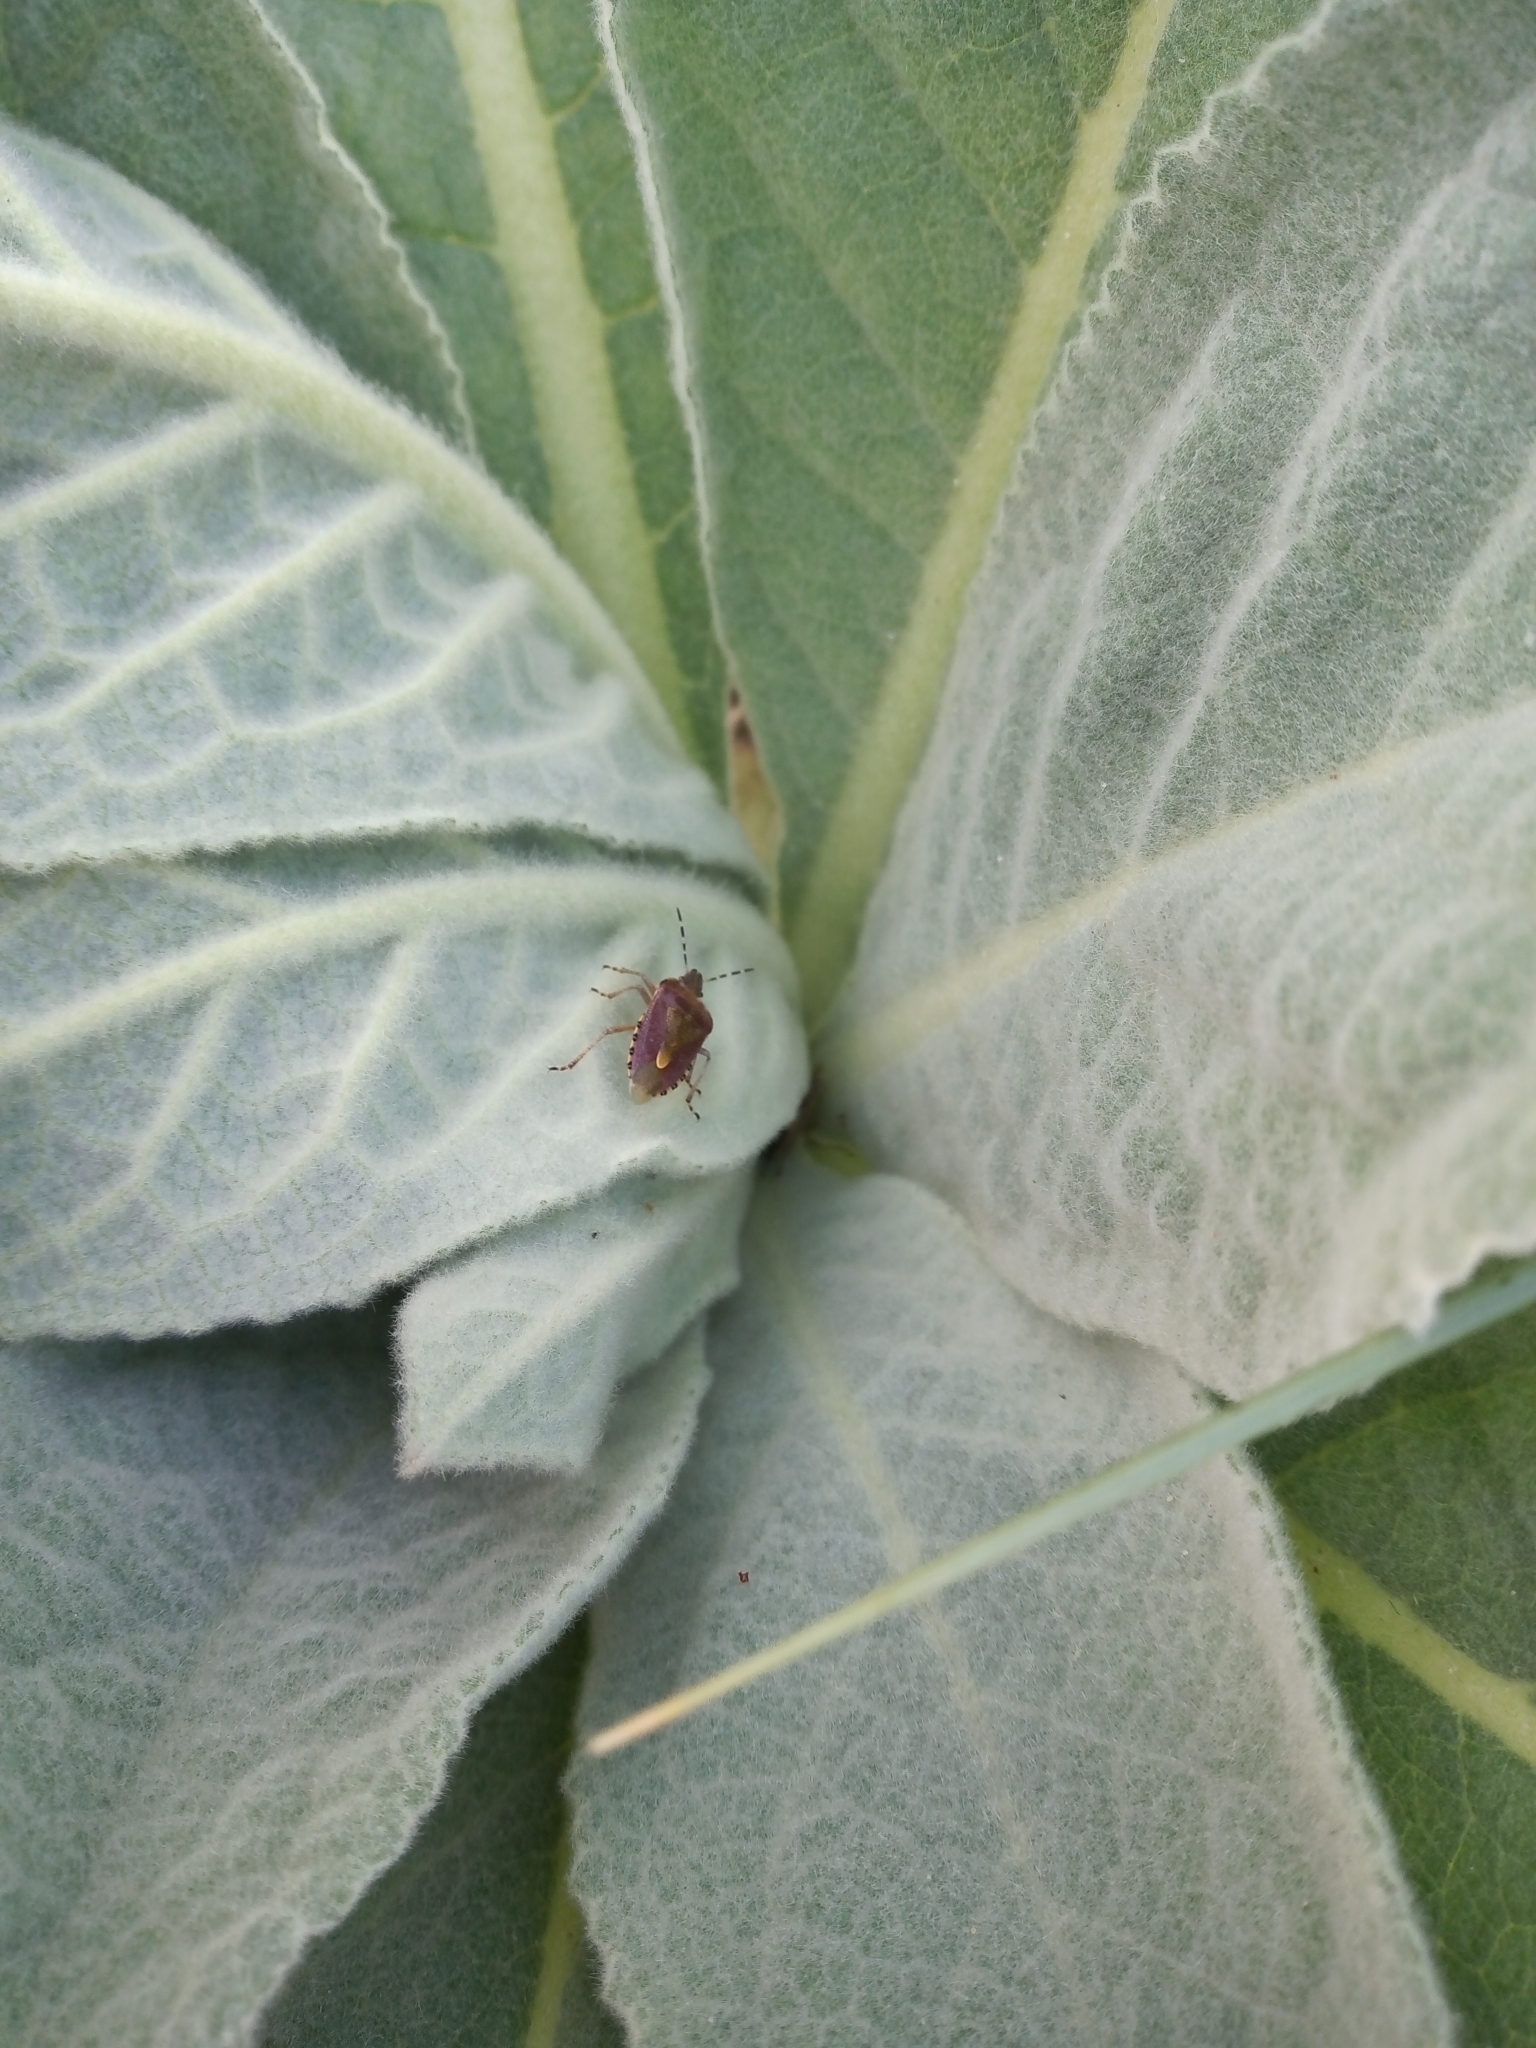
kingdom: Animalia
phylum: Arthropoda
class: Insecta
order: Hemiptera
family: Pentatomidae
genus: Dolycoris
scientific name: Dolycoris baccarum
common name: Sloe bug
